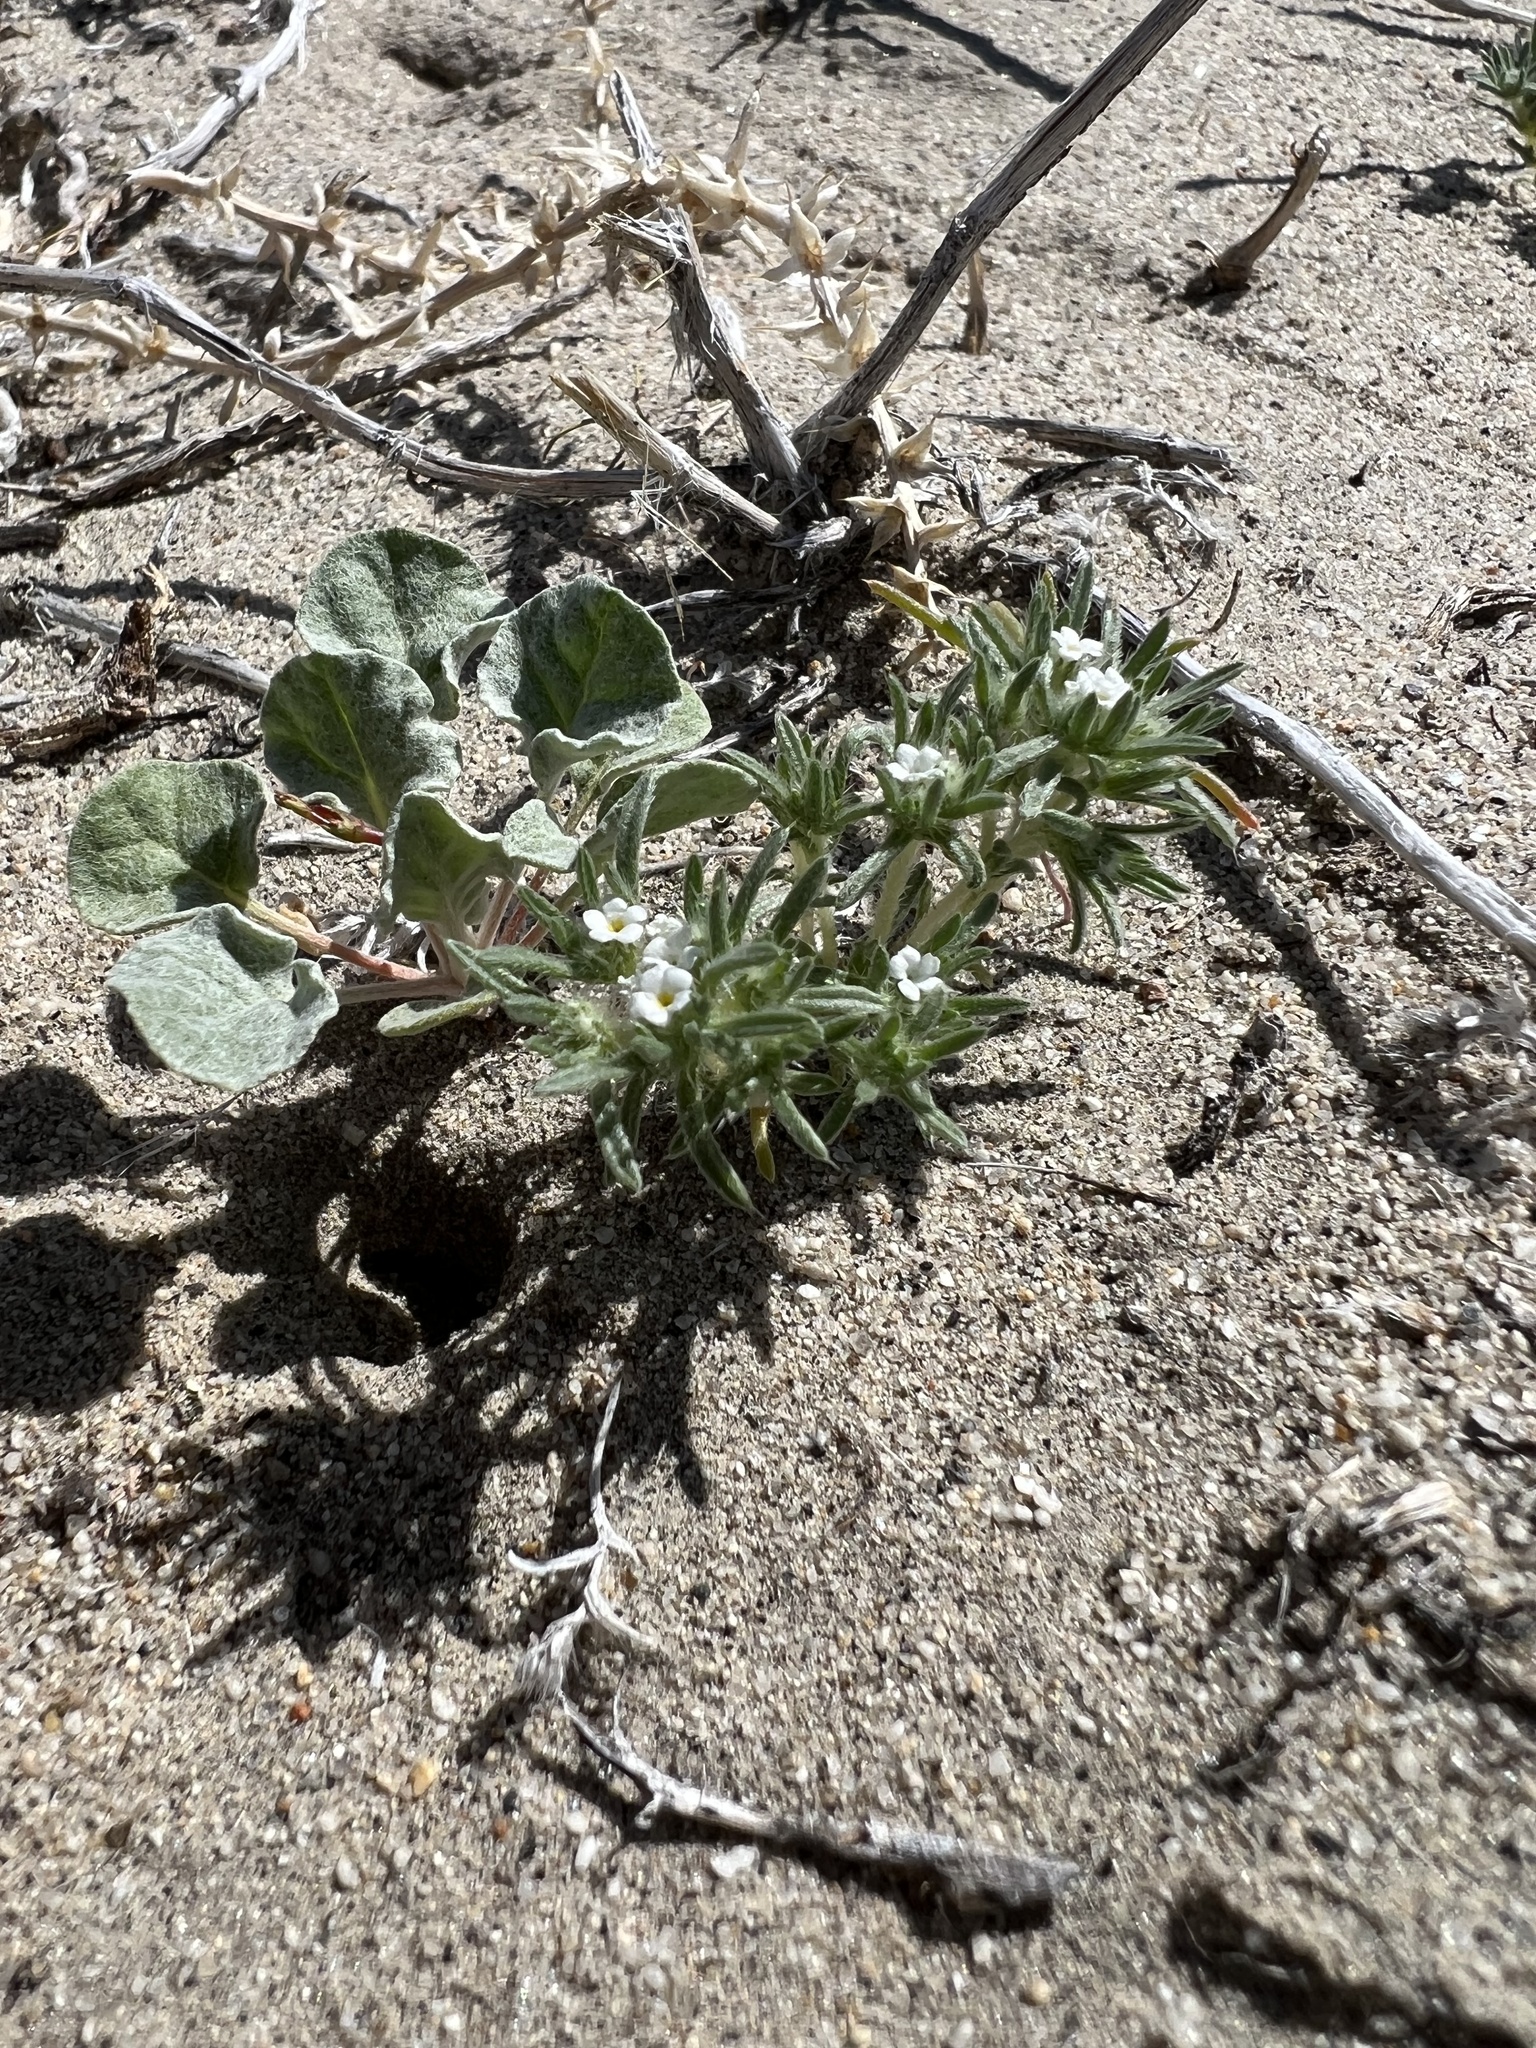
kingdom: Plantae
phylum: Tracheophyta
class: Magnoliopsida
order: Boraginales
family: Boraginaceae
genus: Greeneocharis
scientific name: Greeneocharis circumscissa
